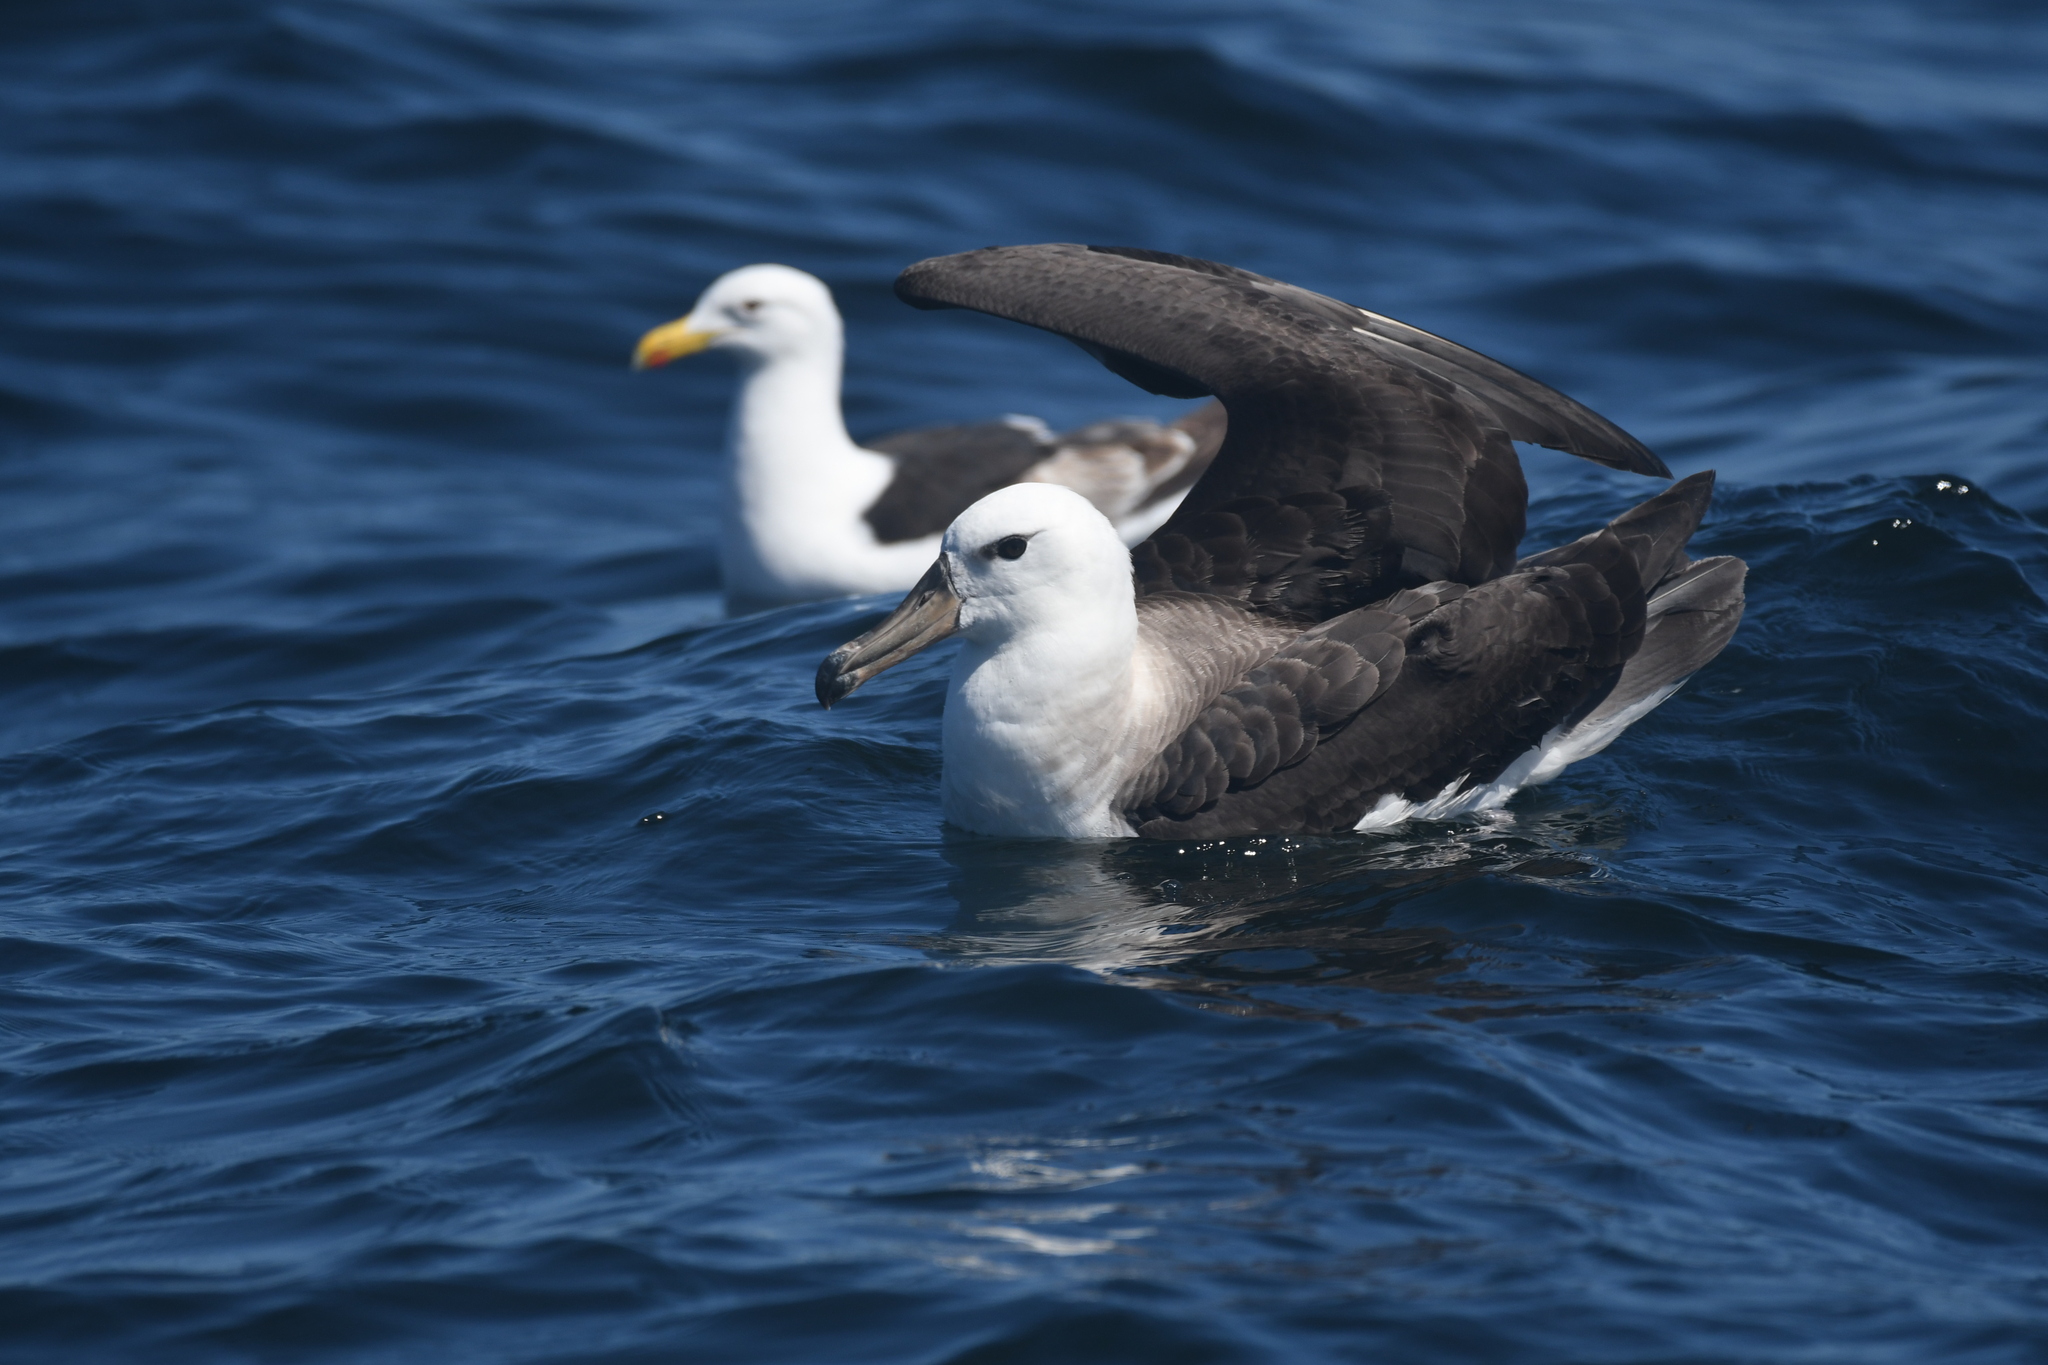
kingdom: Animalia
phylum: Chordata
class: Aves
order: Procellariiformes
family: Diomedeidae
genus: Thalassarche
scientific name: Thalassarche melanophris
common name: Black-browed albatross
